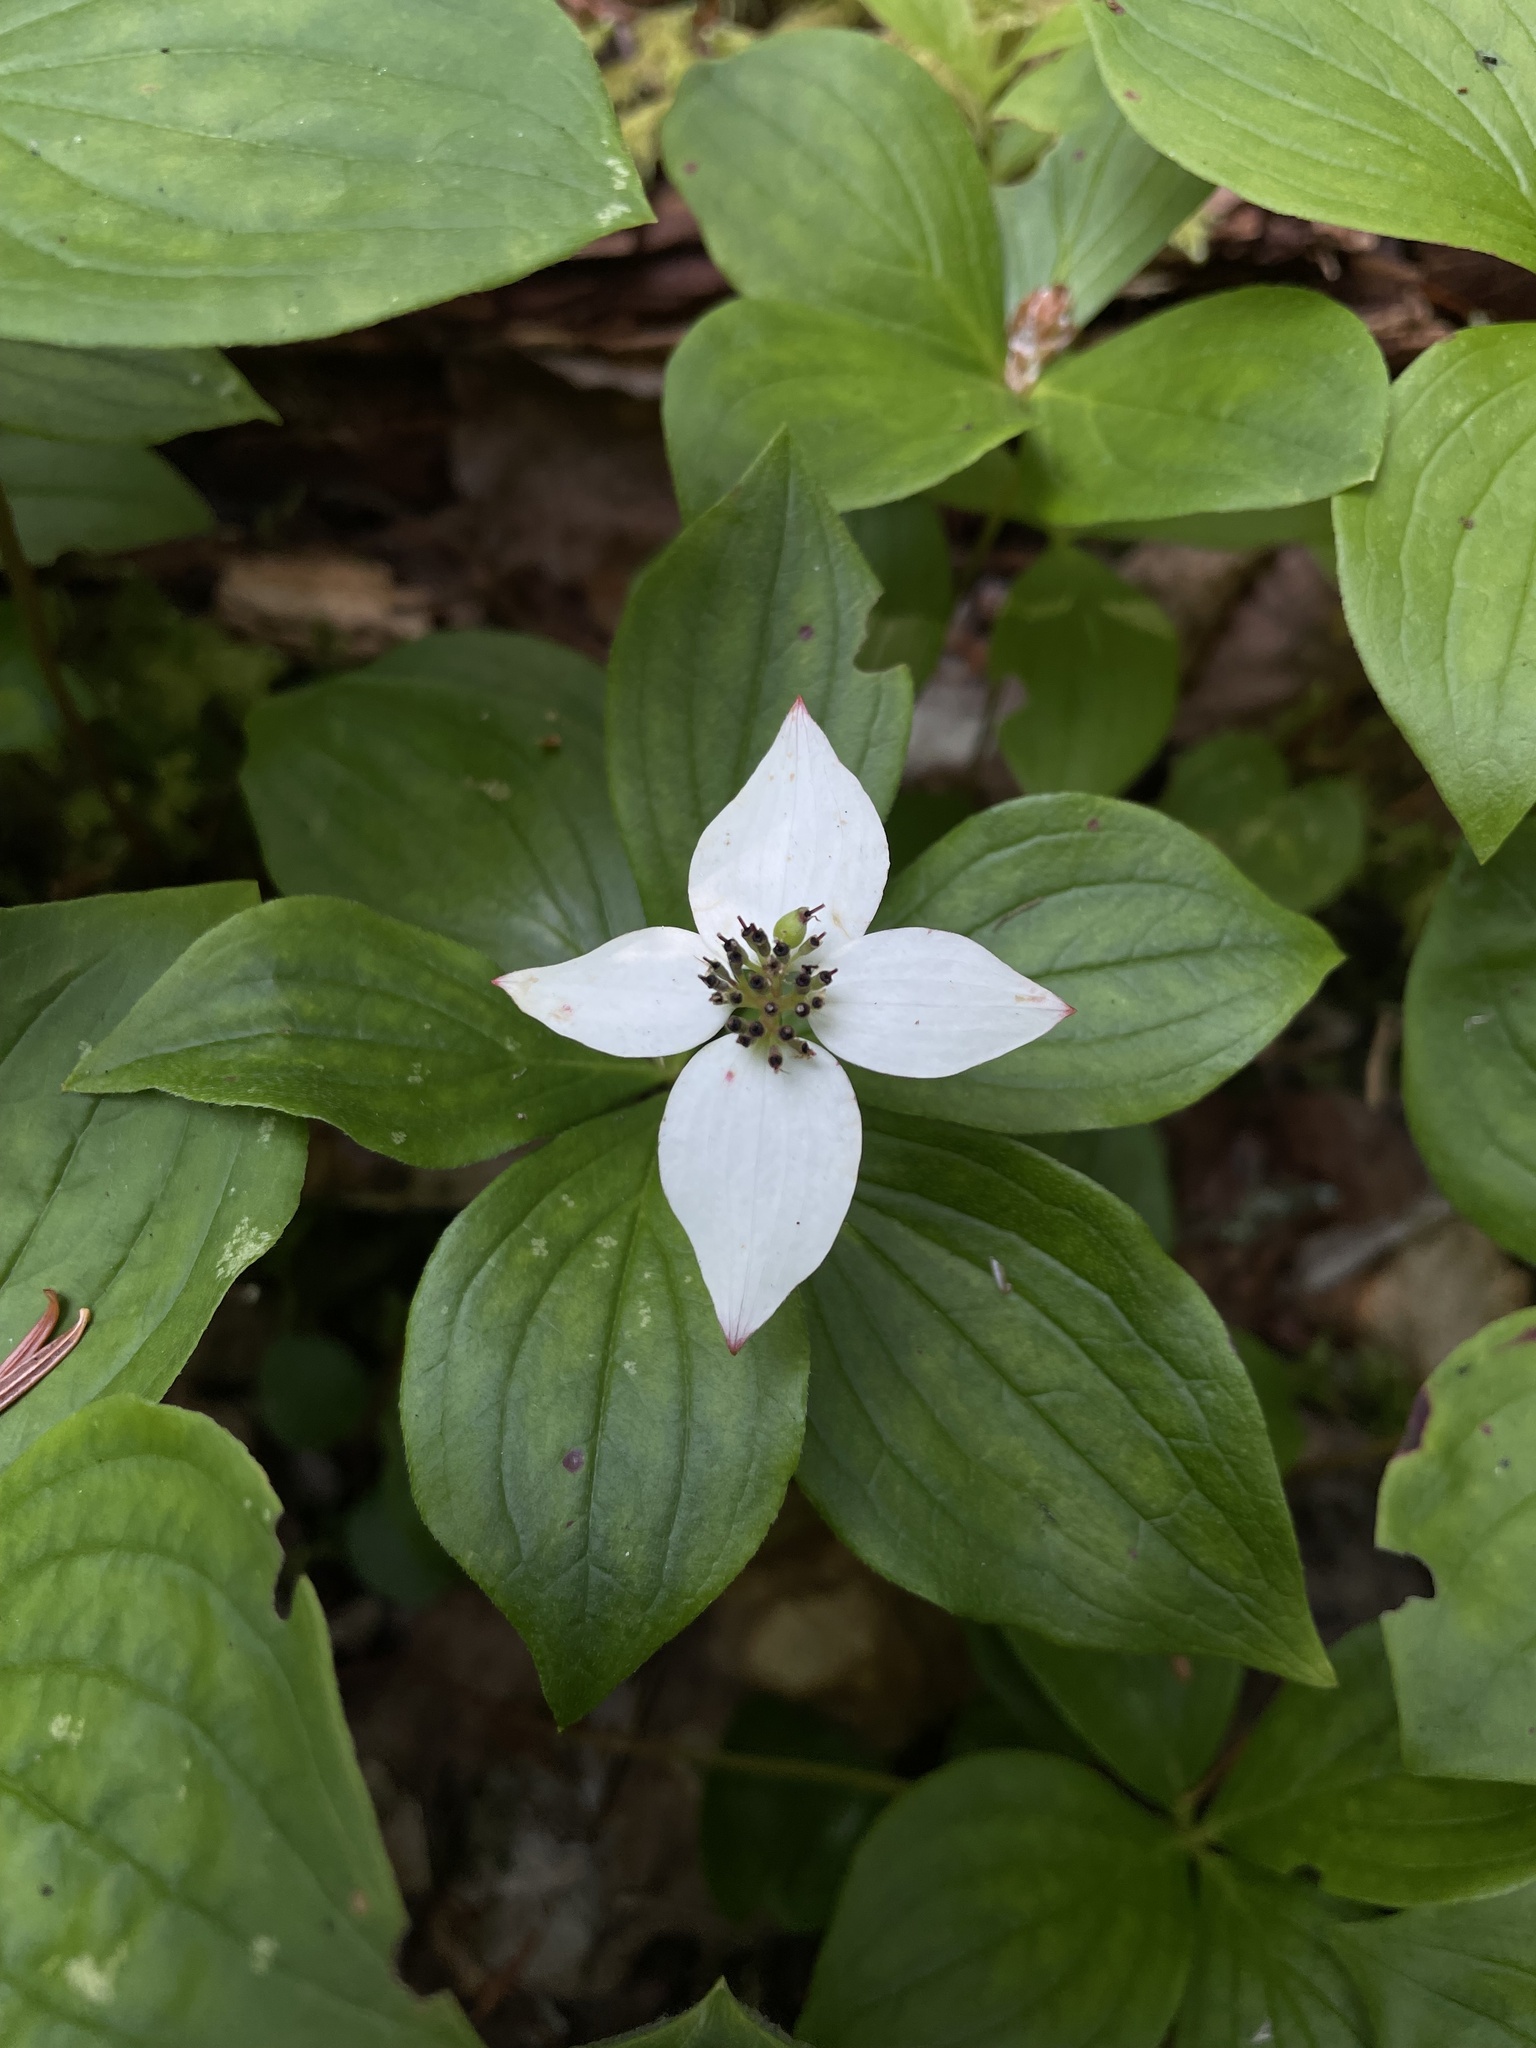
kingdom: Plantae
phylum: Tracheophyta
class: Magnoliopsida
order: Cornales
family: Cornaceae
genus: Cornus
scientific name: Cornus canadensis
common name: Creeping dogwood
